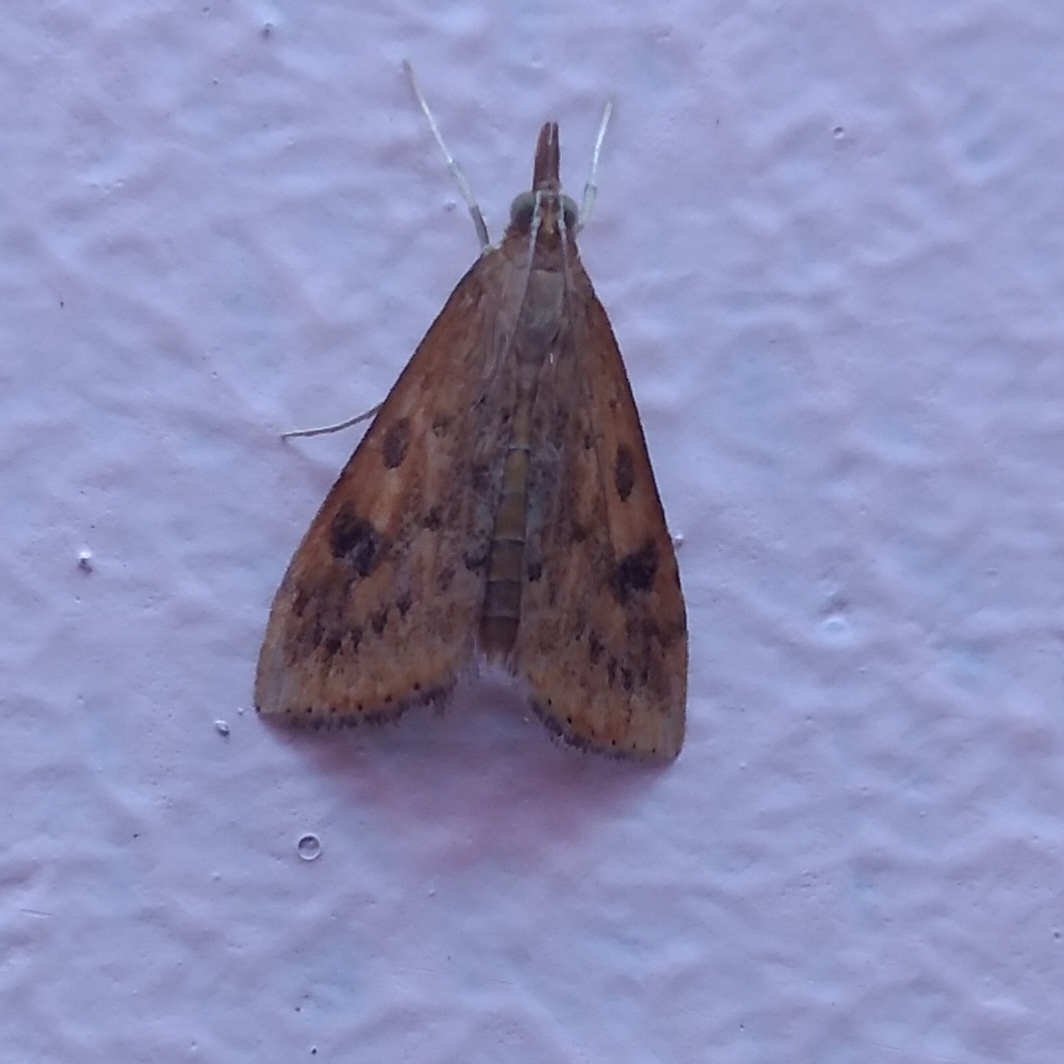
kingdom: Animalia
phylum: Arthropoda
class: Insecta
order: Lepidoptera
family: Crambidae
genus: Udea
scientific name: Udea ferrugalis
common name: Rusty dot
